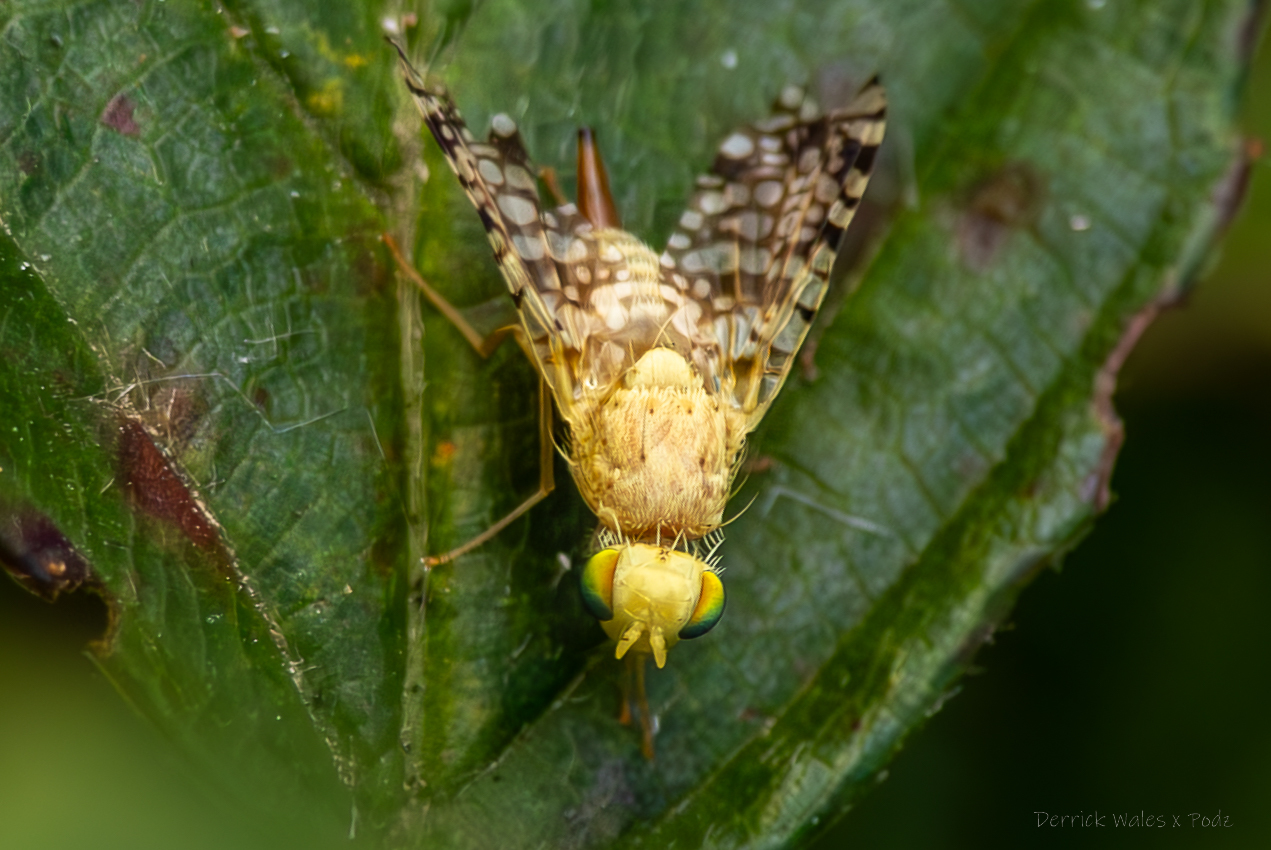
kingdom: Animalia
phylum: Arthropoda
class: Insecta
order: Diptera
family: Tephritidae
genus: Euaresta
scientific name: Euaresta aequalis
